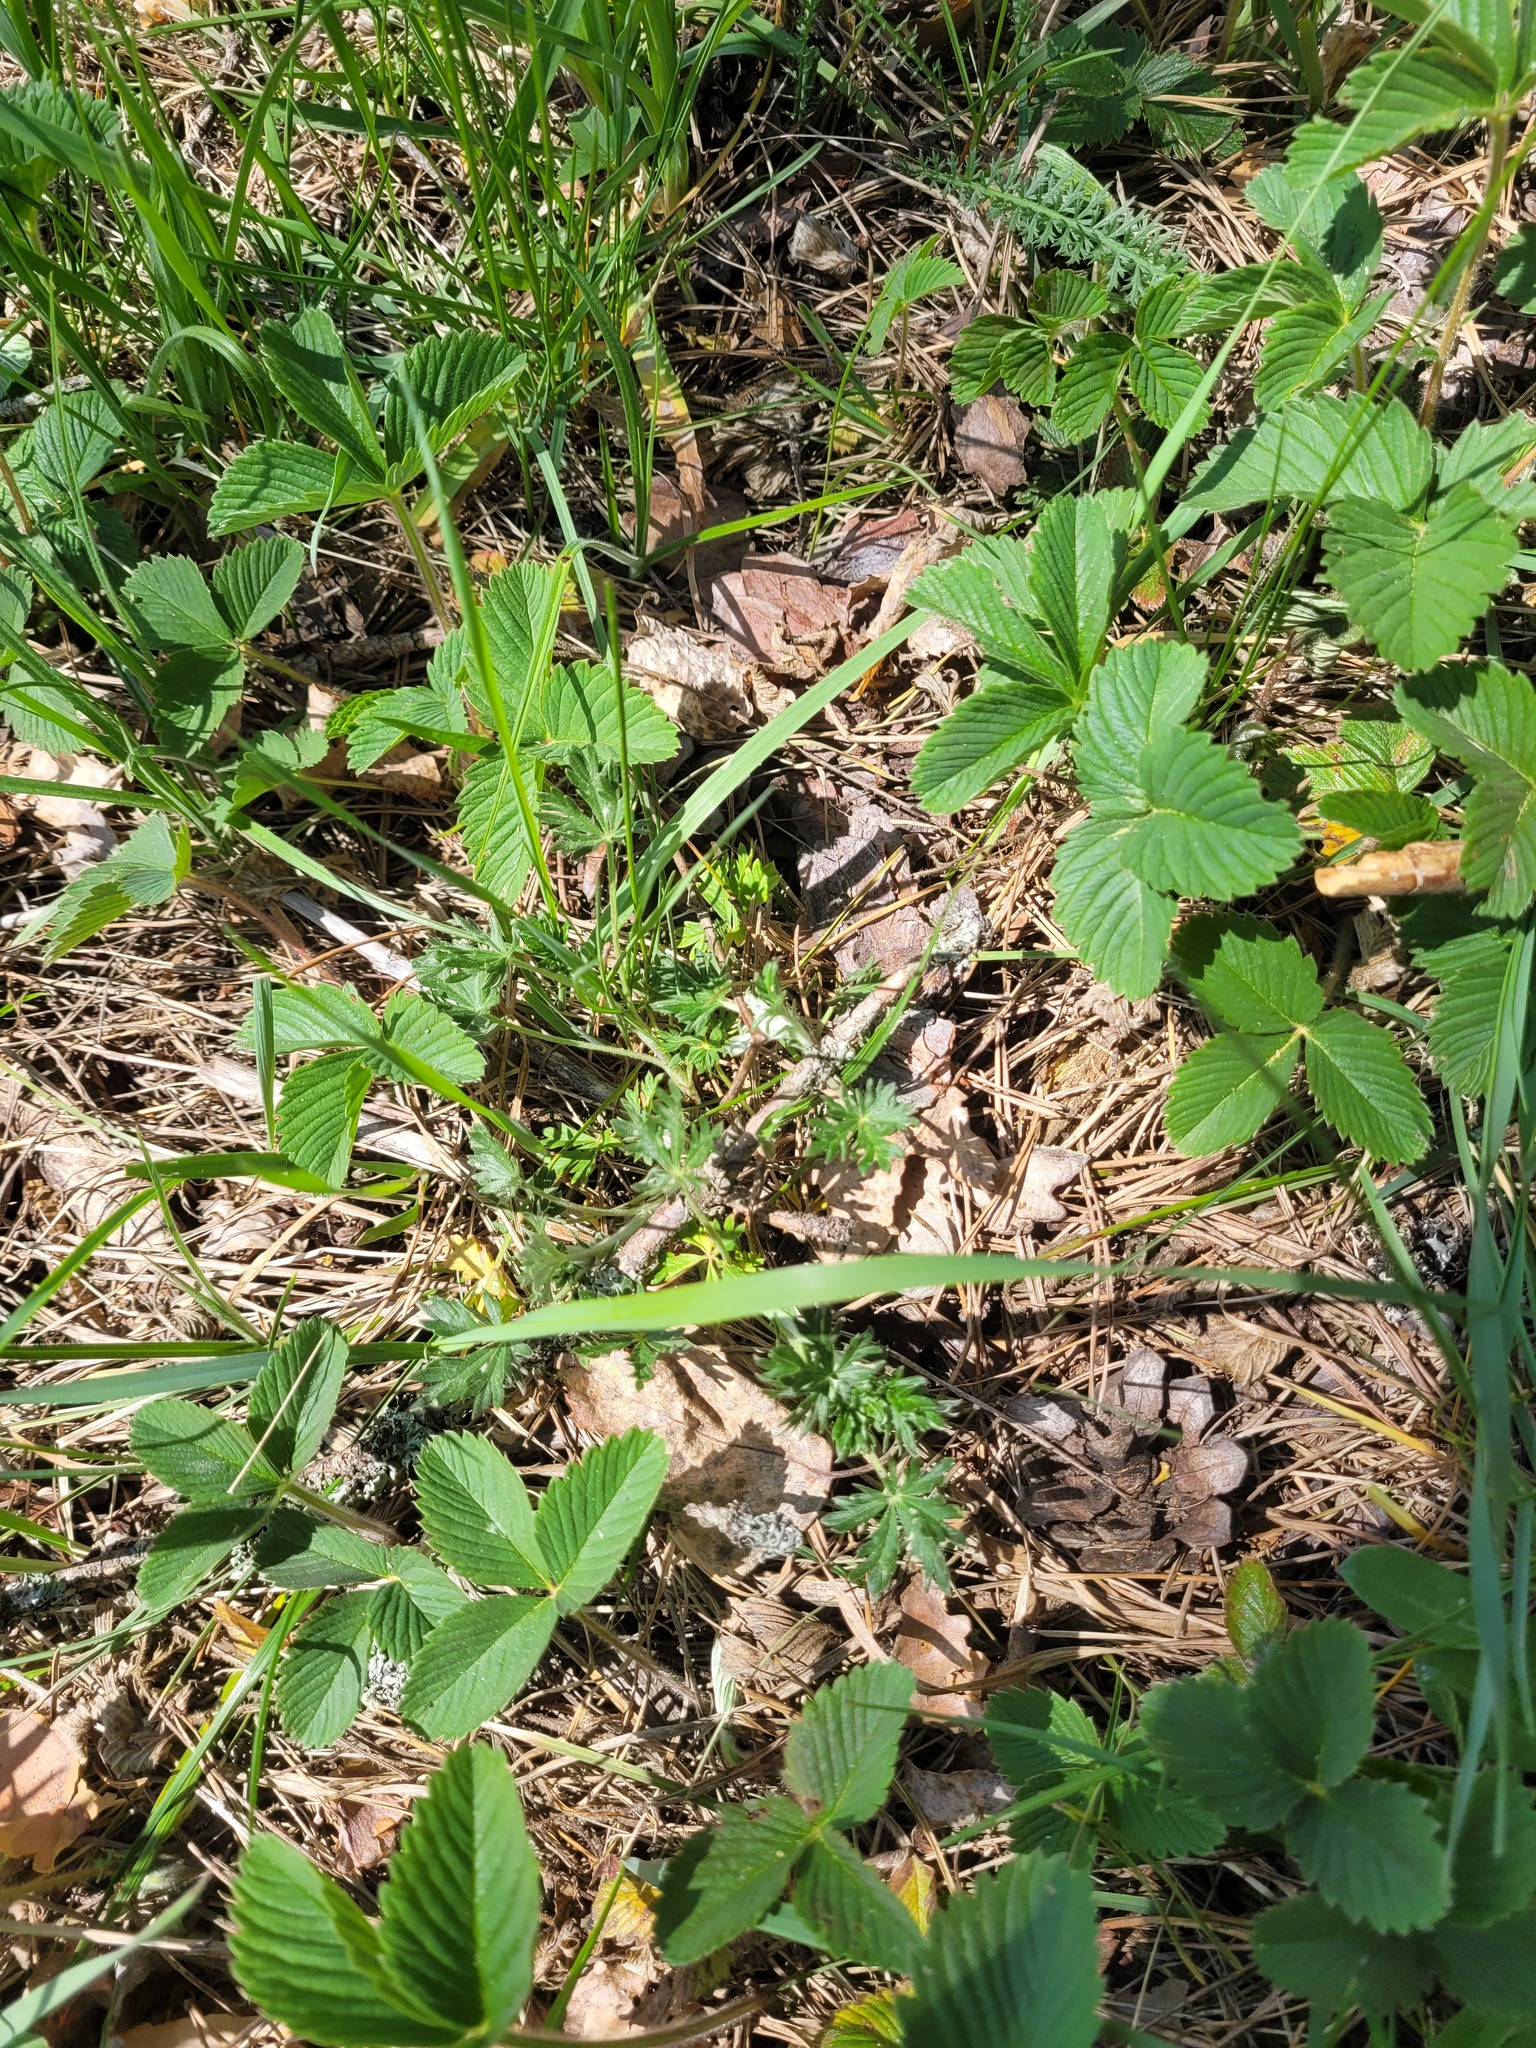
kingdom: Plantae
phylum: Tracheophyta
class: Magnoliopsida
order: Rosales
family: Rosaceae
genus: Potentilla
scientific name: Potentilla argentea
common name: Hoary cinquefoil
